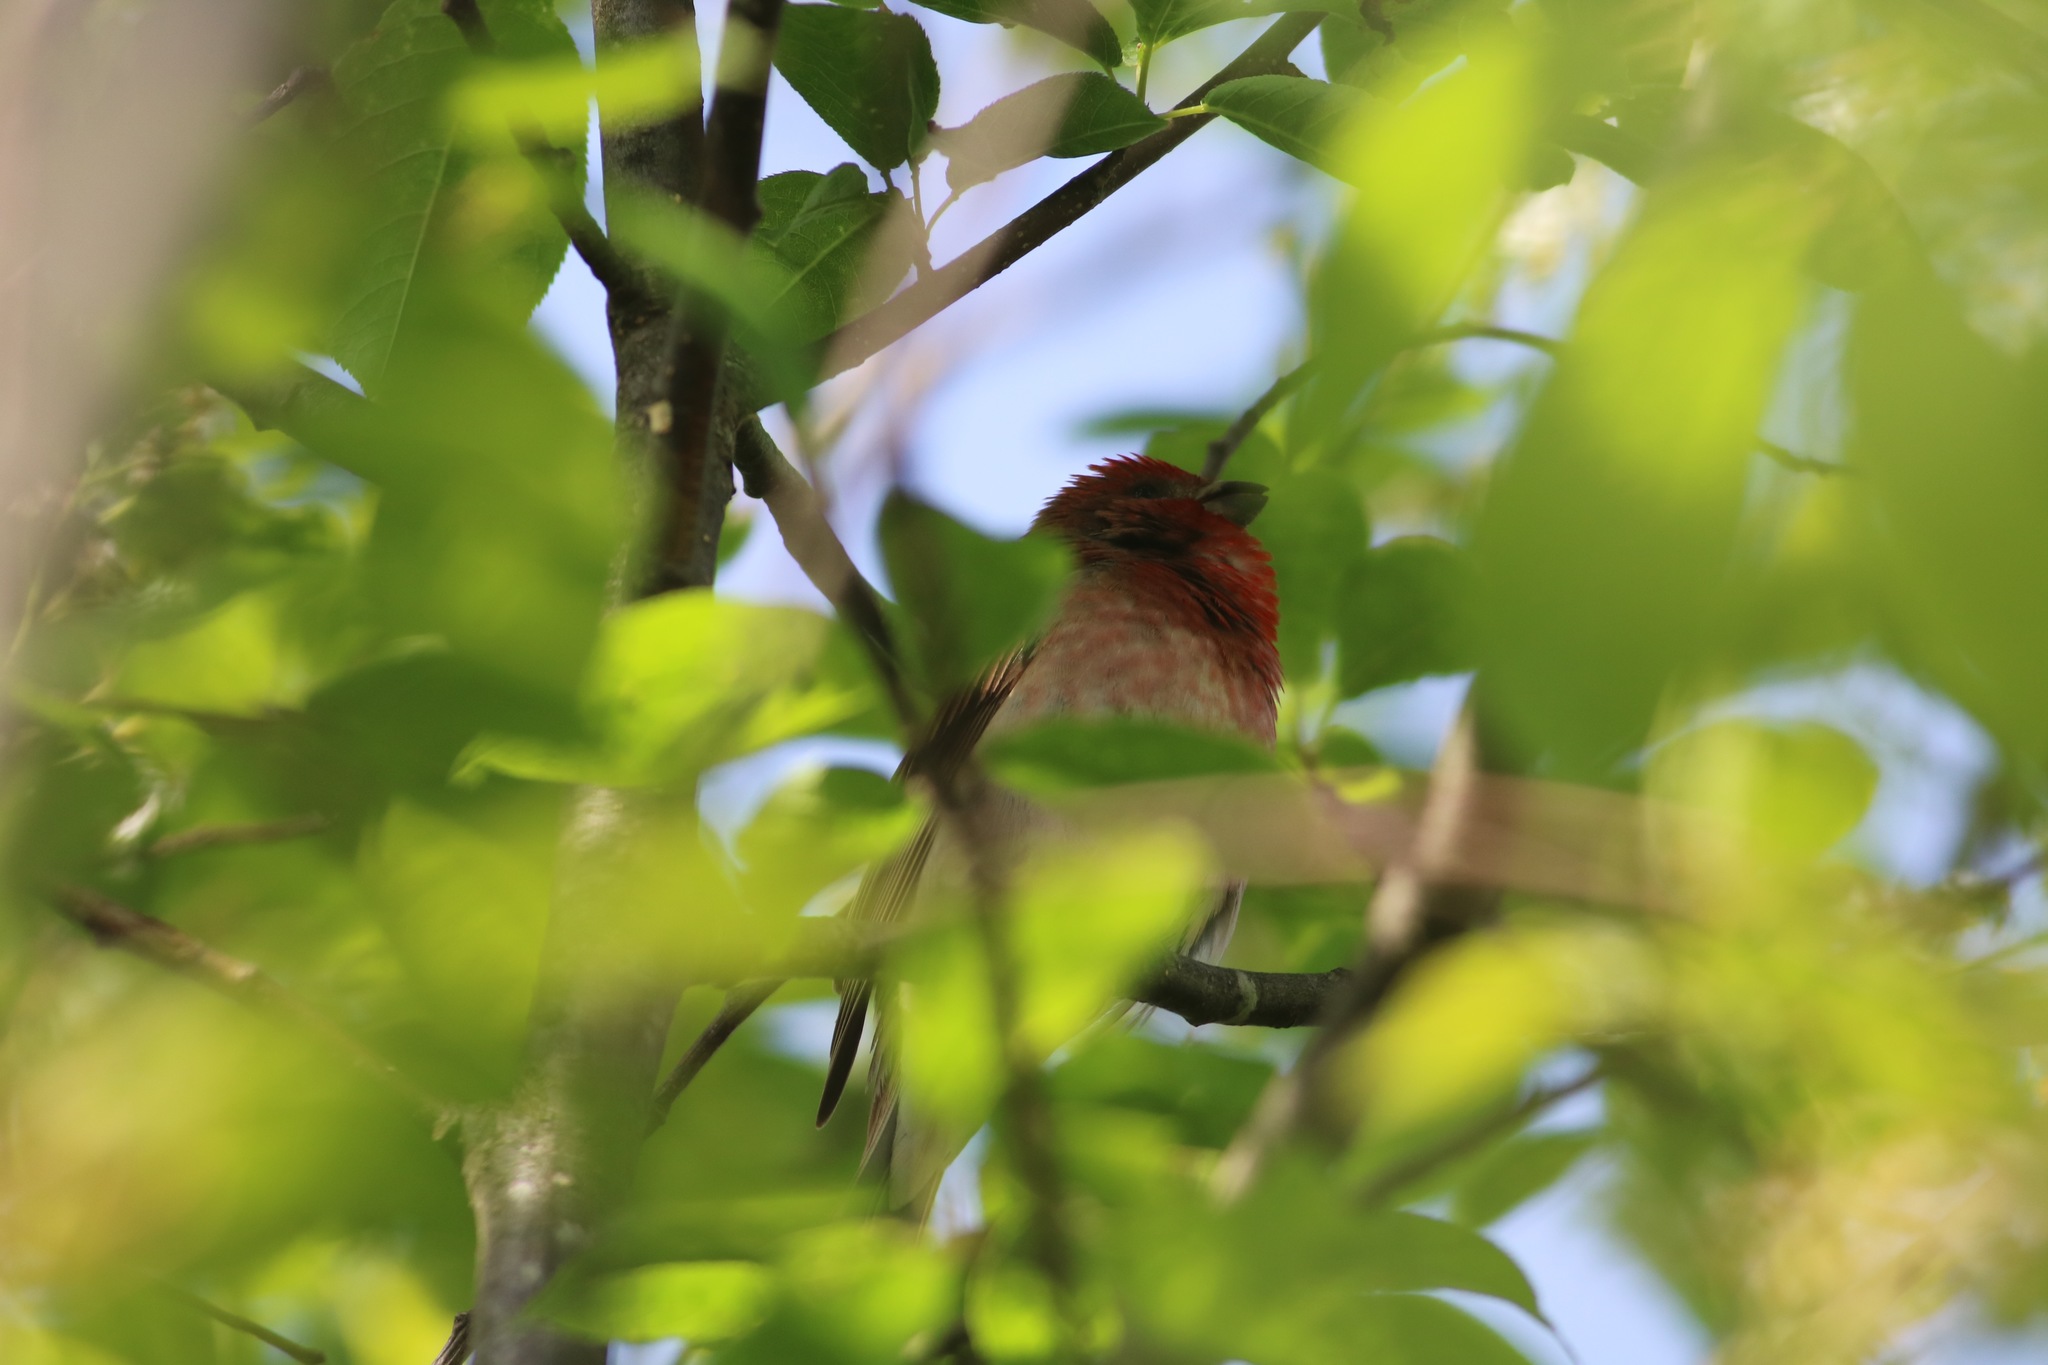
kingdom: Animalia
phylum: Chordata
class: Aves
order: Passeriformes
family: Fringillidae
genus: Carpodacus
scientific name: Carpodacus erythrinus
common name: Common rosefinch
